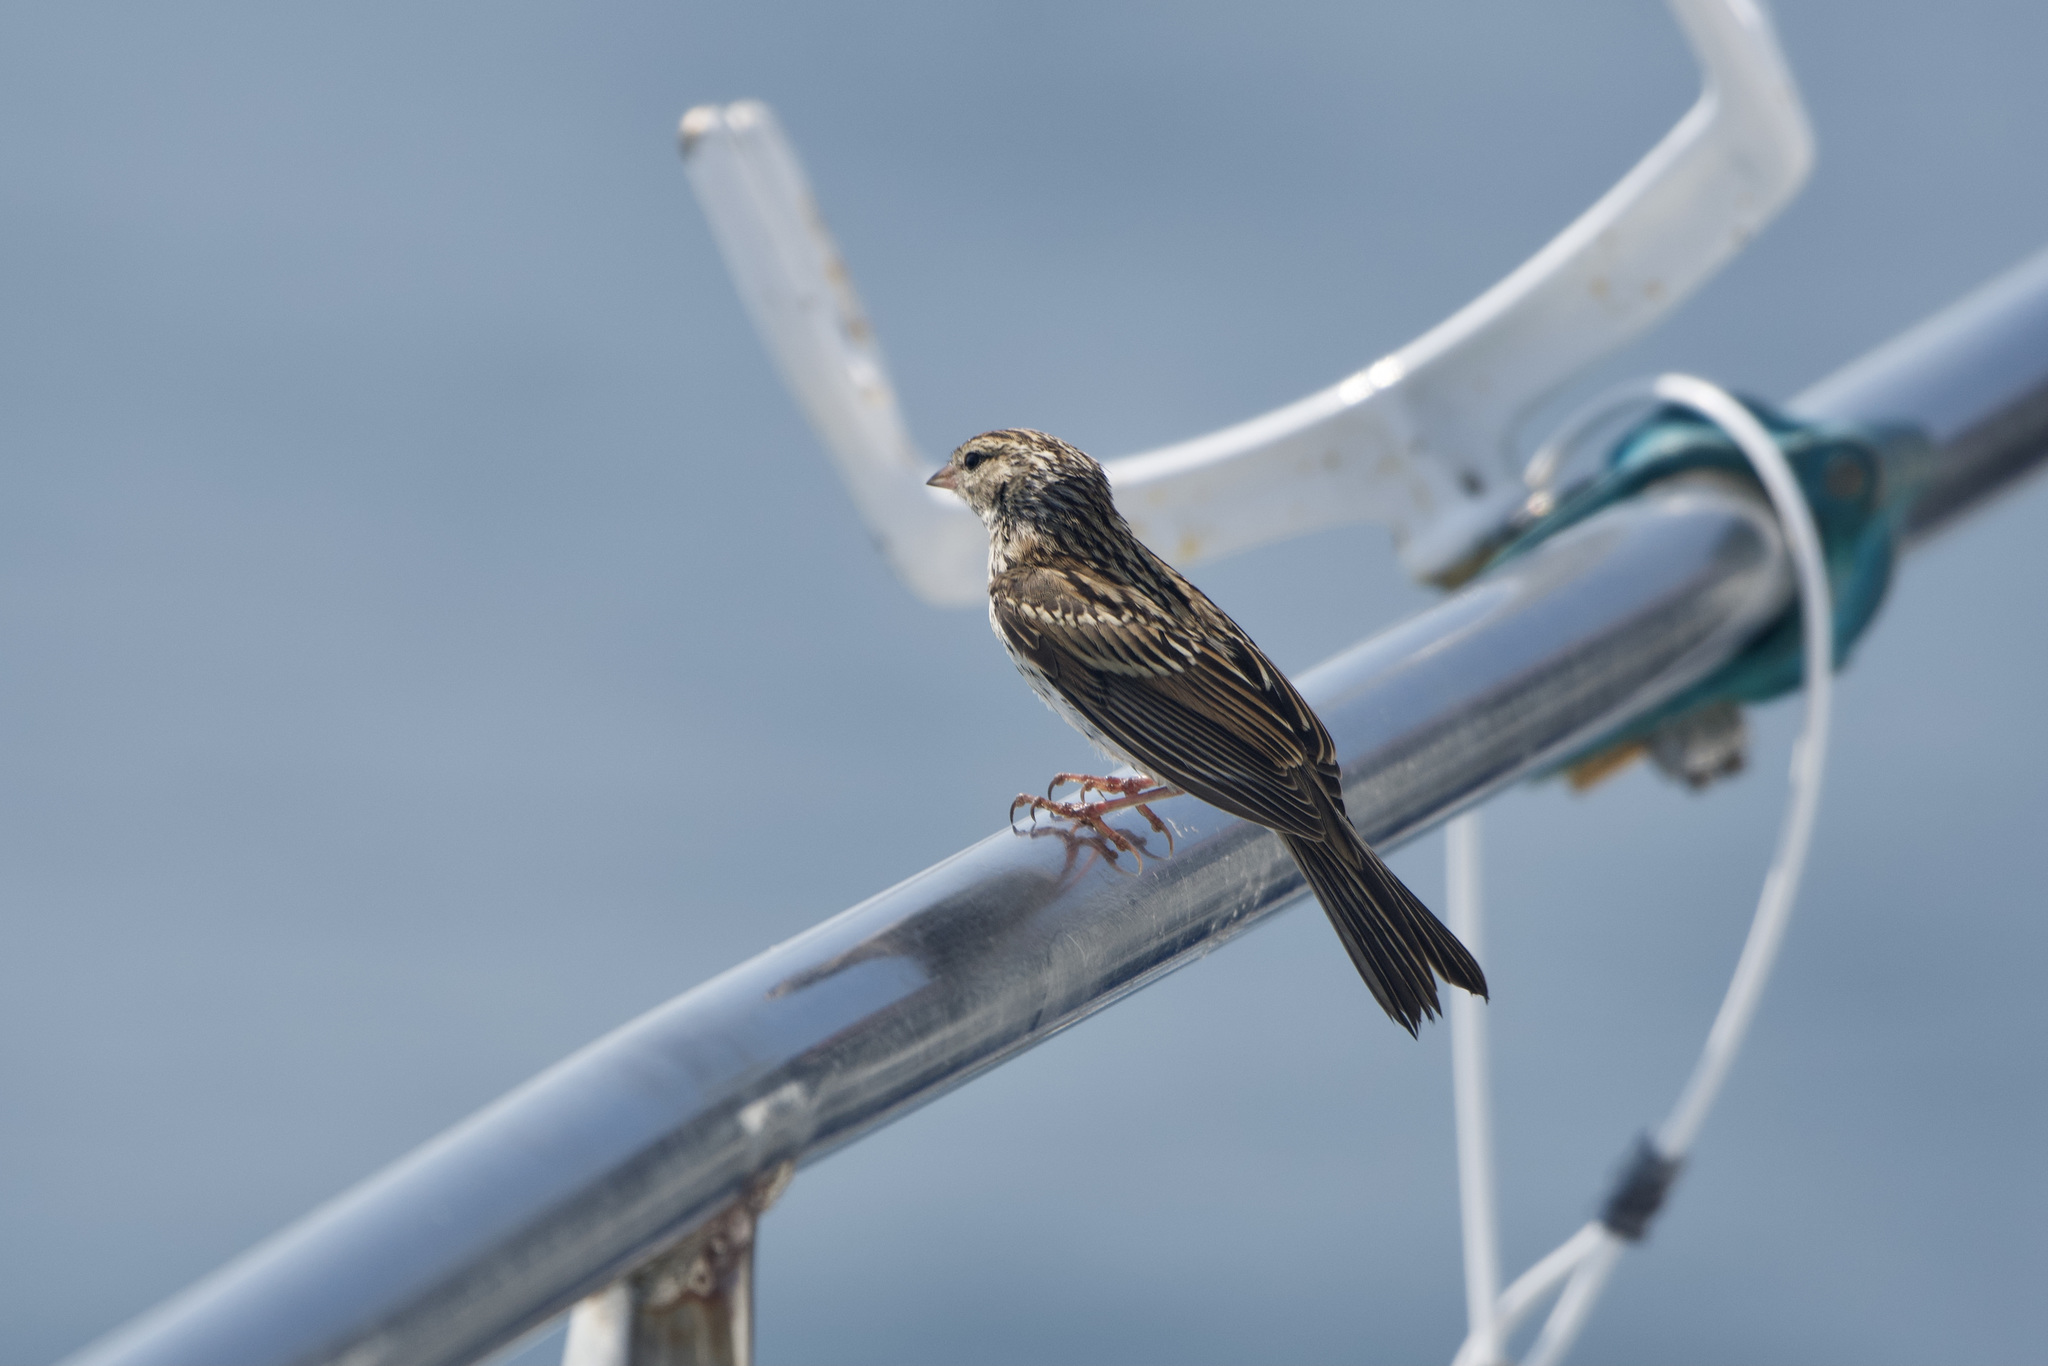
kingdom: Animalia
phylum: Chordata
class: Aves
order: Passeriformes
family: Passerellidae
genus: Spizella
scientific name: Spizella passerina
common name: Chipping sparrow
